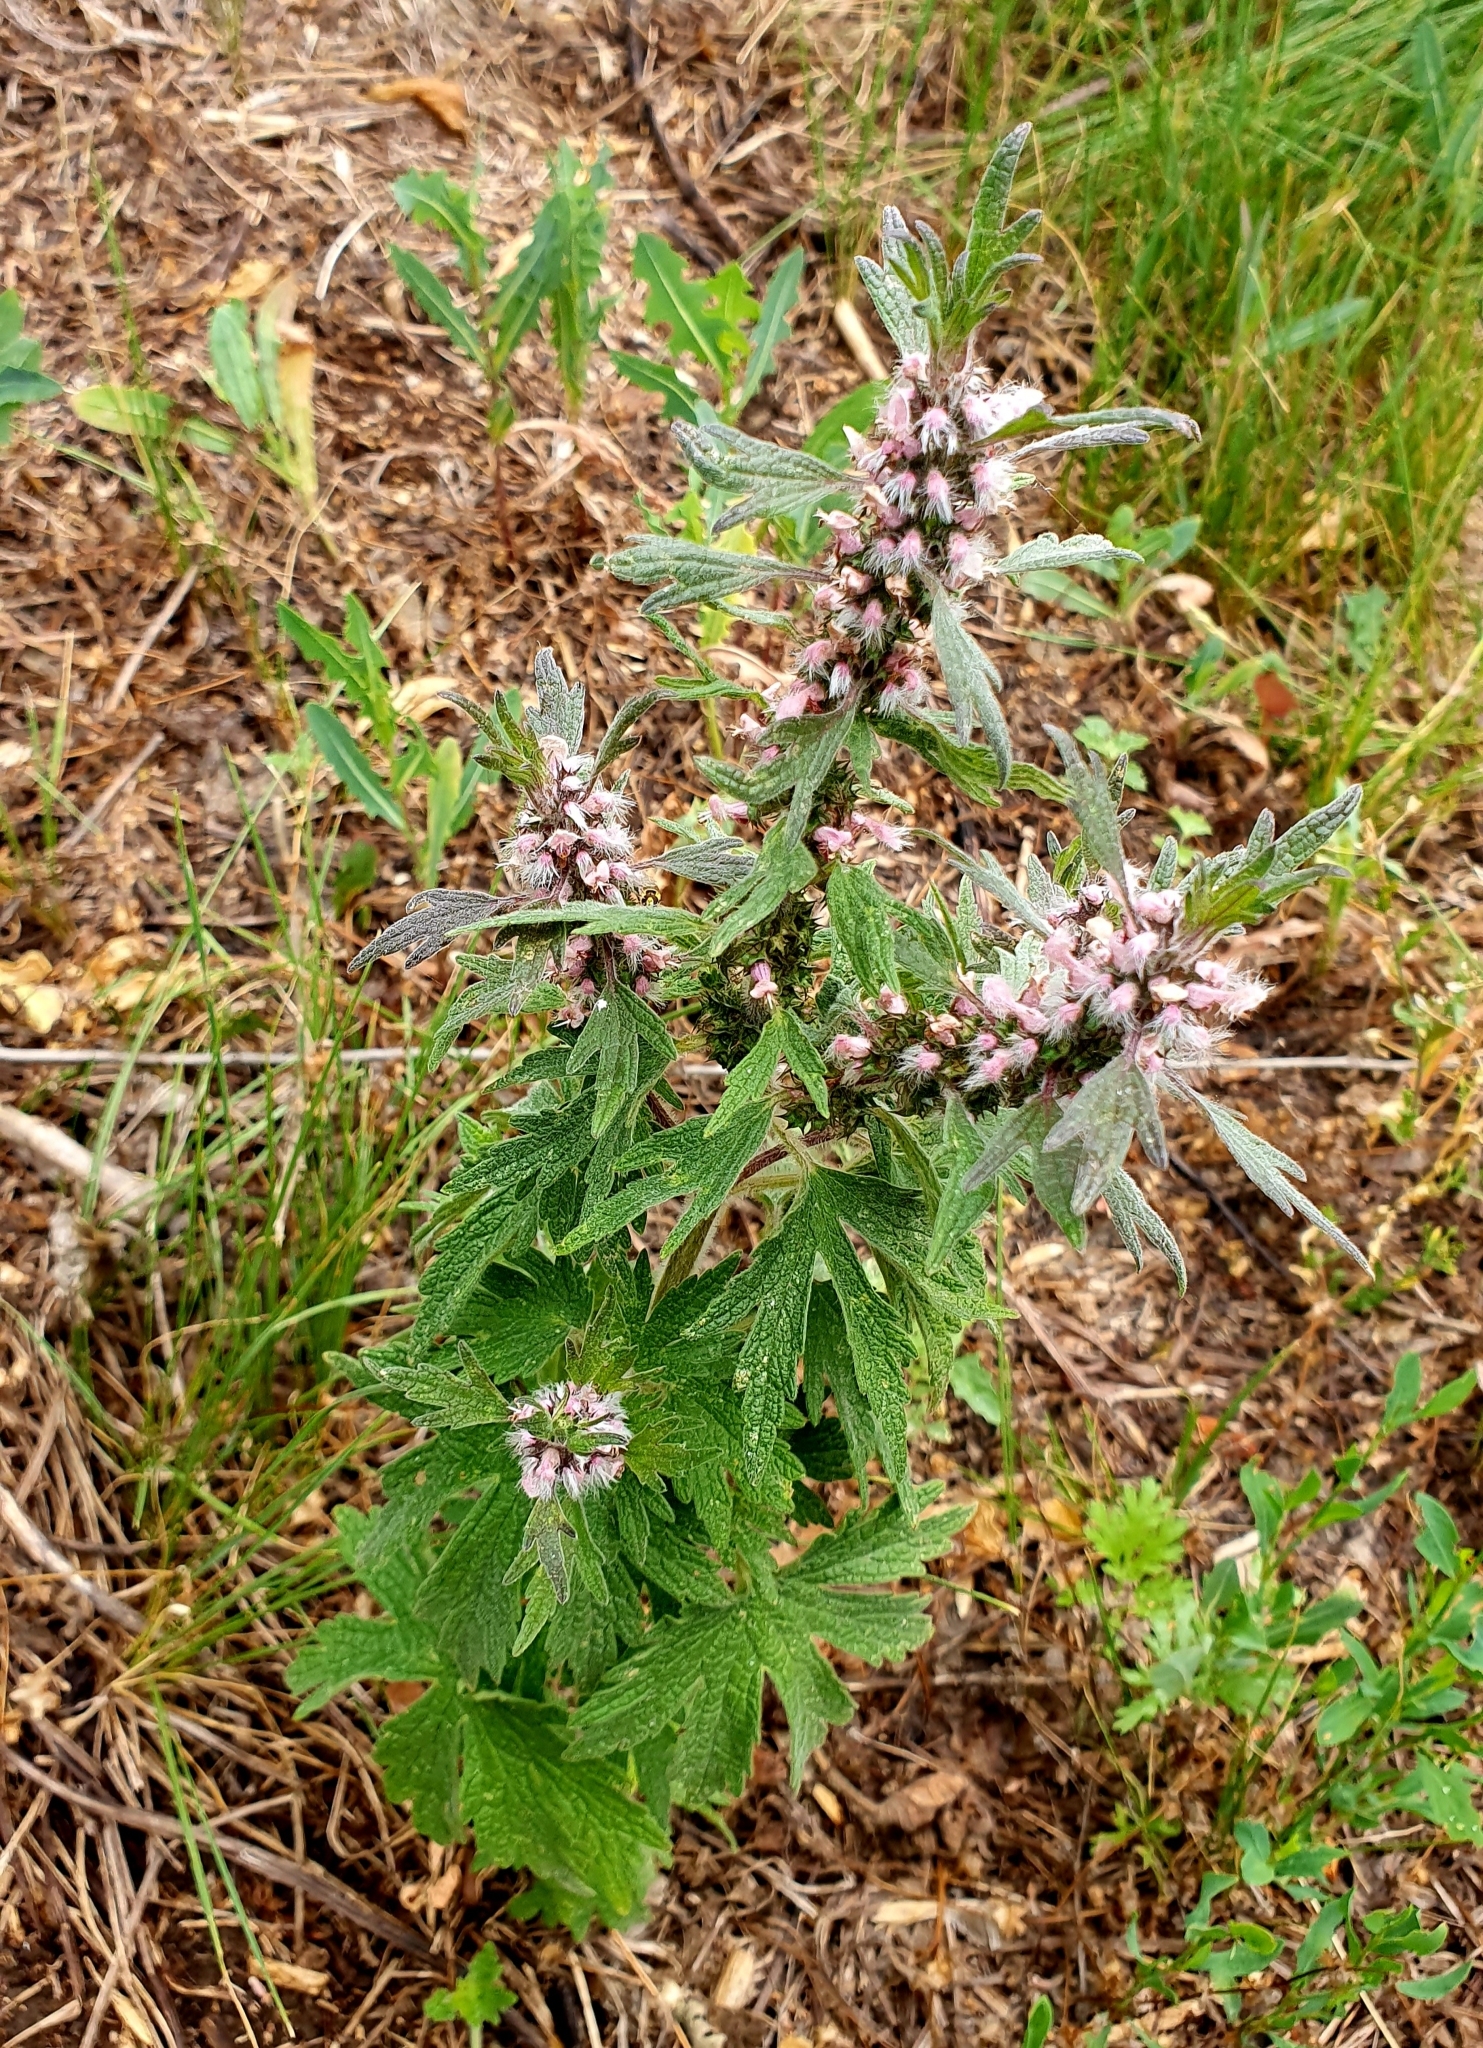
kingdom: Plantae
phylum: Tracheophyta
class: Magnoliopsida
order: Lamiales
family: Lamiaceae
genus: Leonurus
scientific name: Leonurus quinquelobatus
